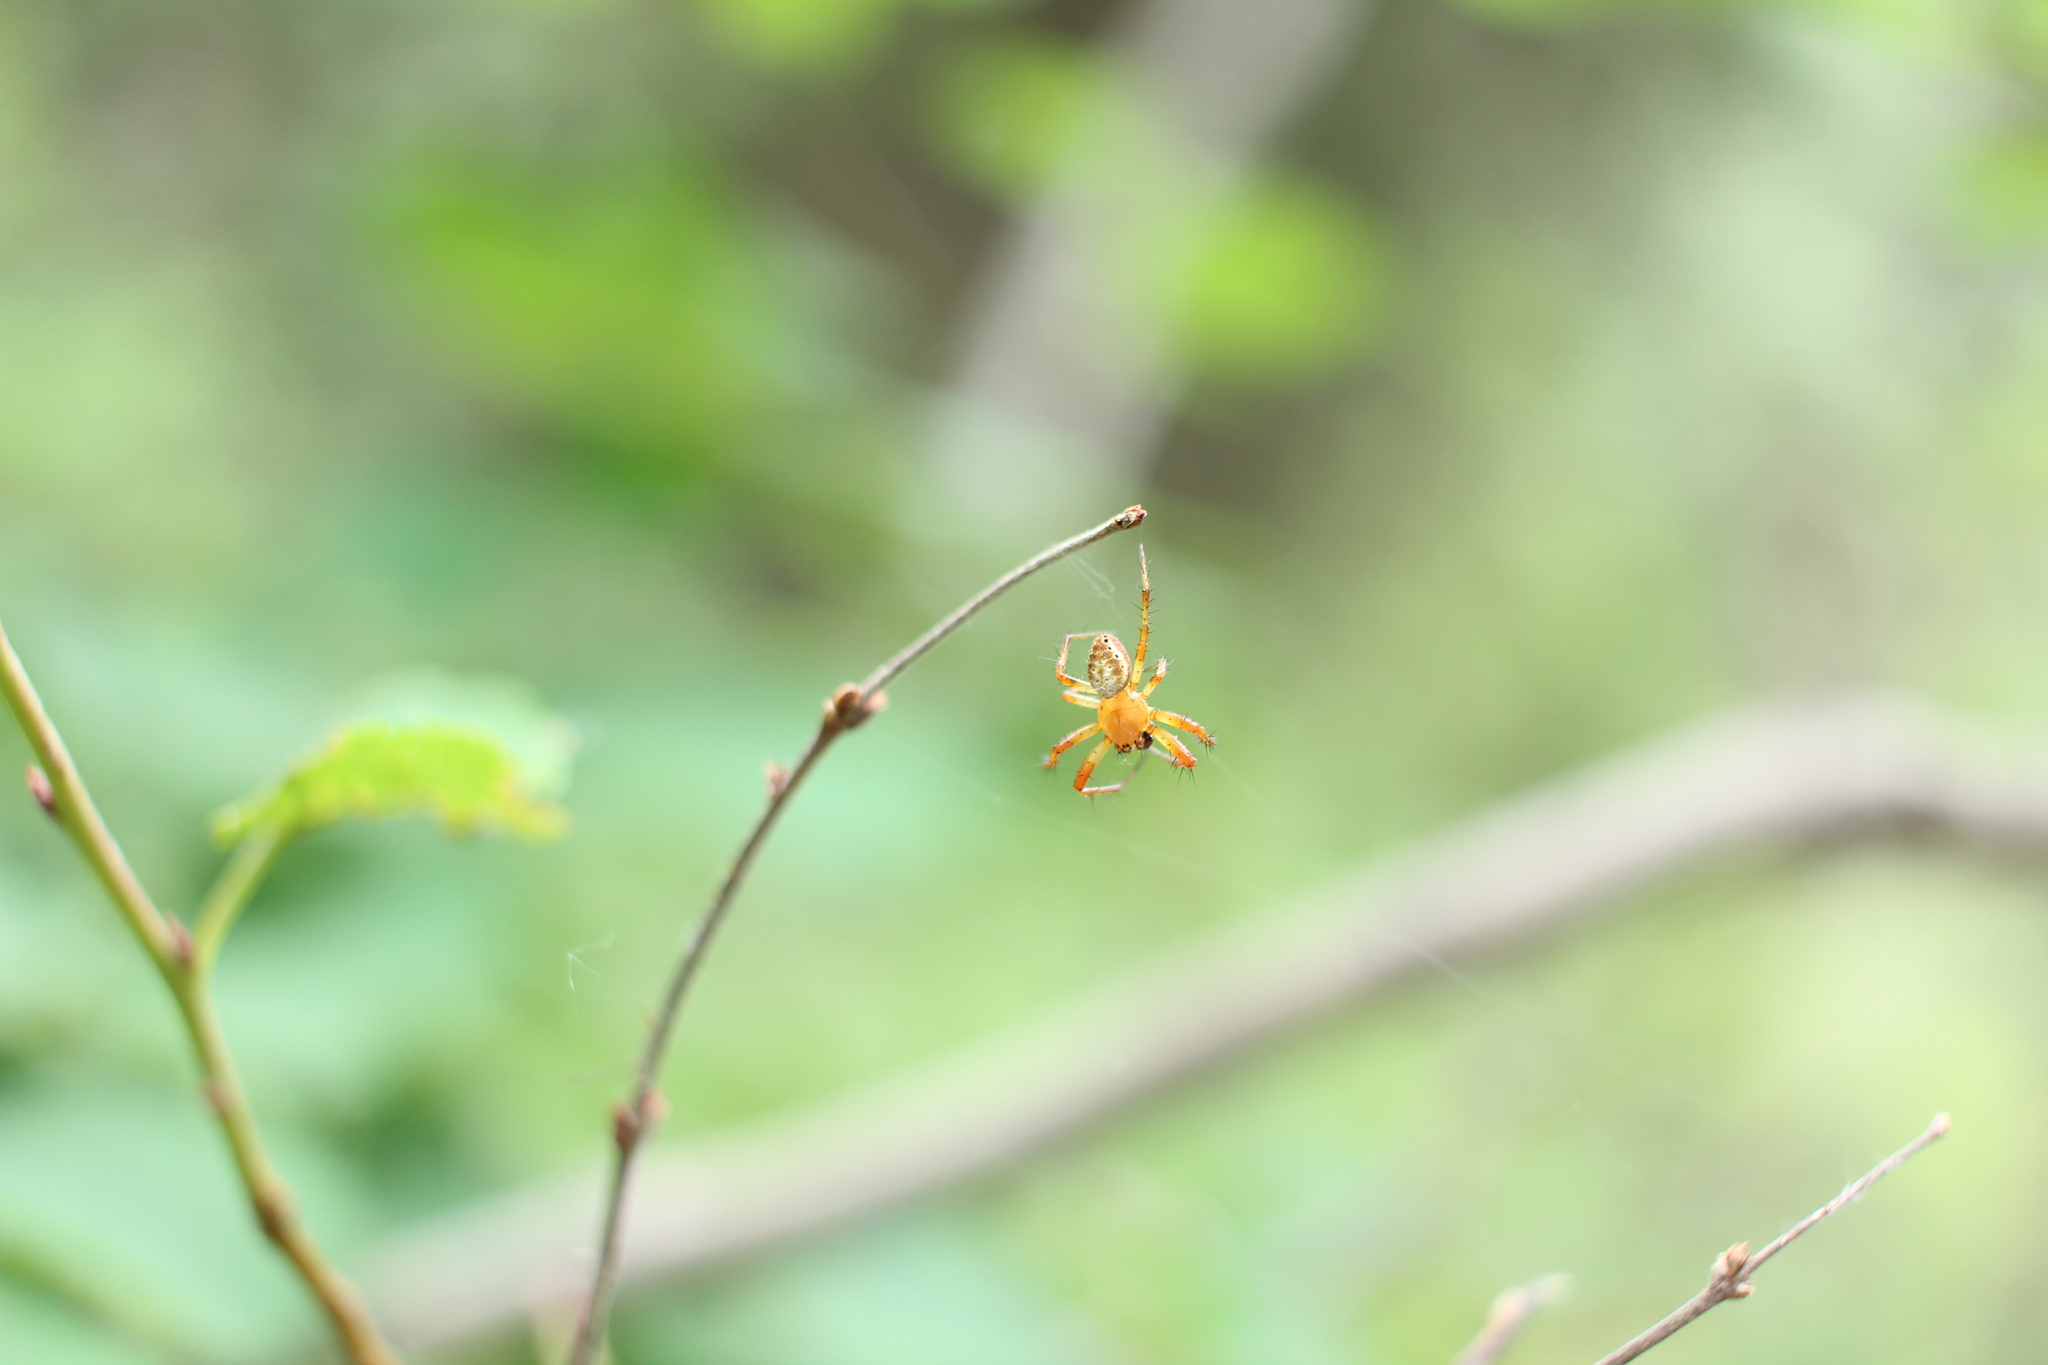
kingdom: Animalia
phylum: Arthropoda
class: Arachnida
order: Araneae
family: Araneidae
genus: Araniella
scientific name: Araniella displicata
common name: Sixspotted orb weaver
